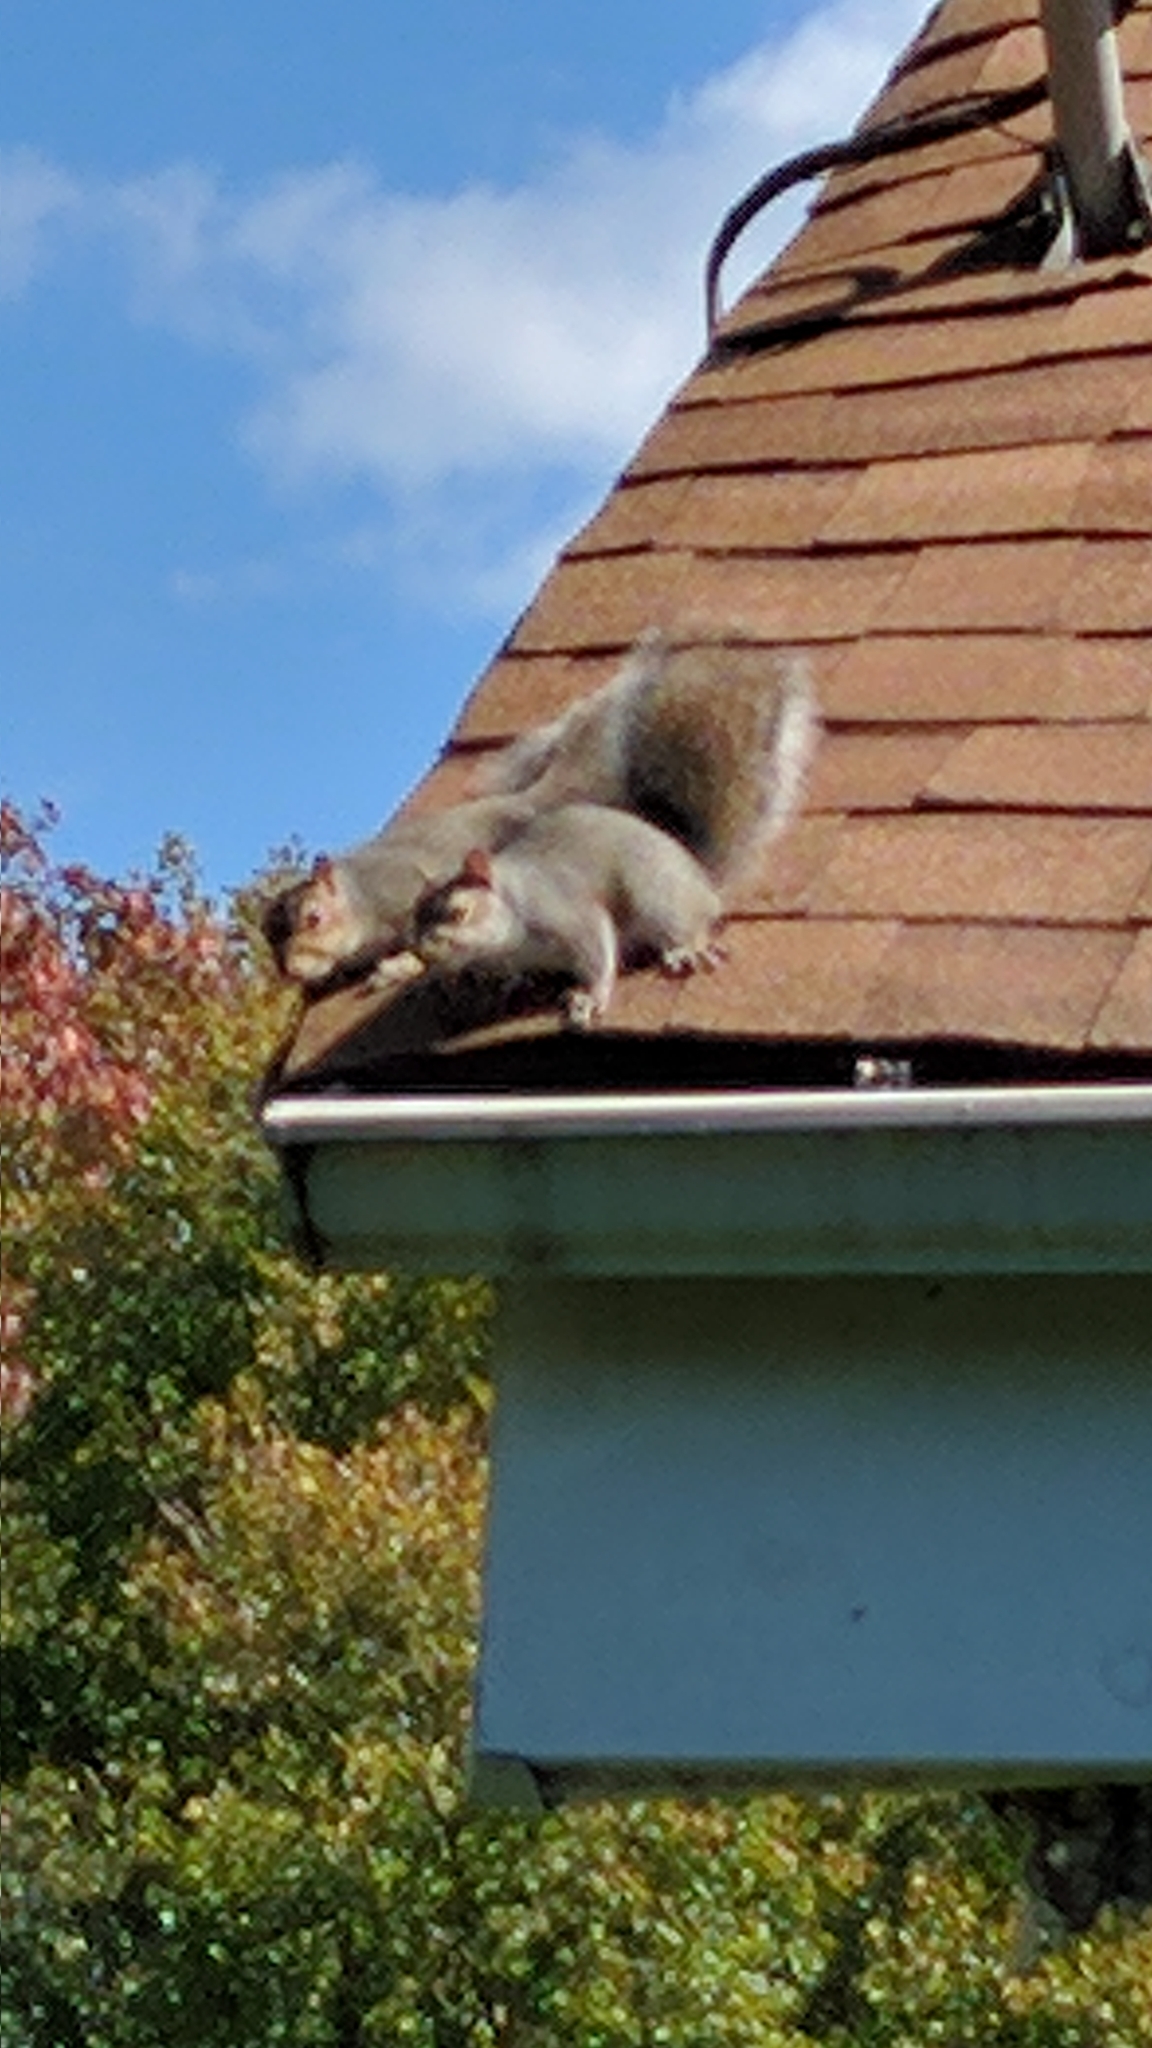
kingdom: Animalia
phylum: Chordata
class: Mammalia
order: Rodentia
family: Sciuridae
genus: Sciurus
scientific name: Sciurus carolinensis
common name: Eastern gray squirrel
